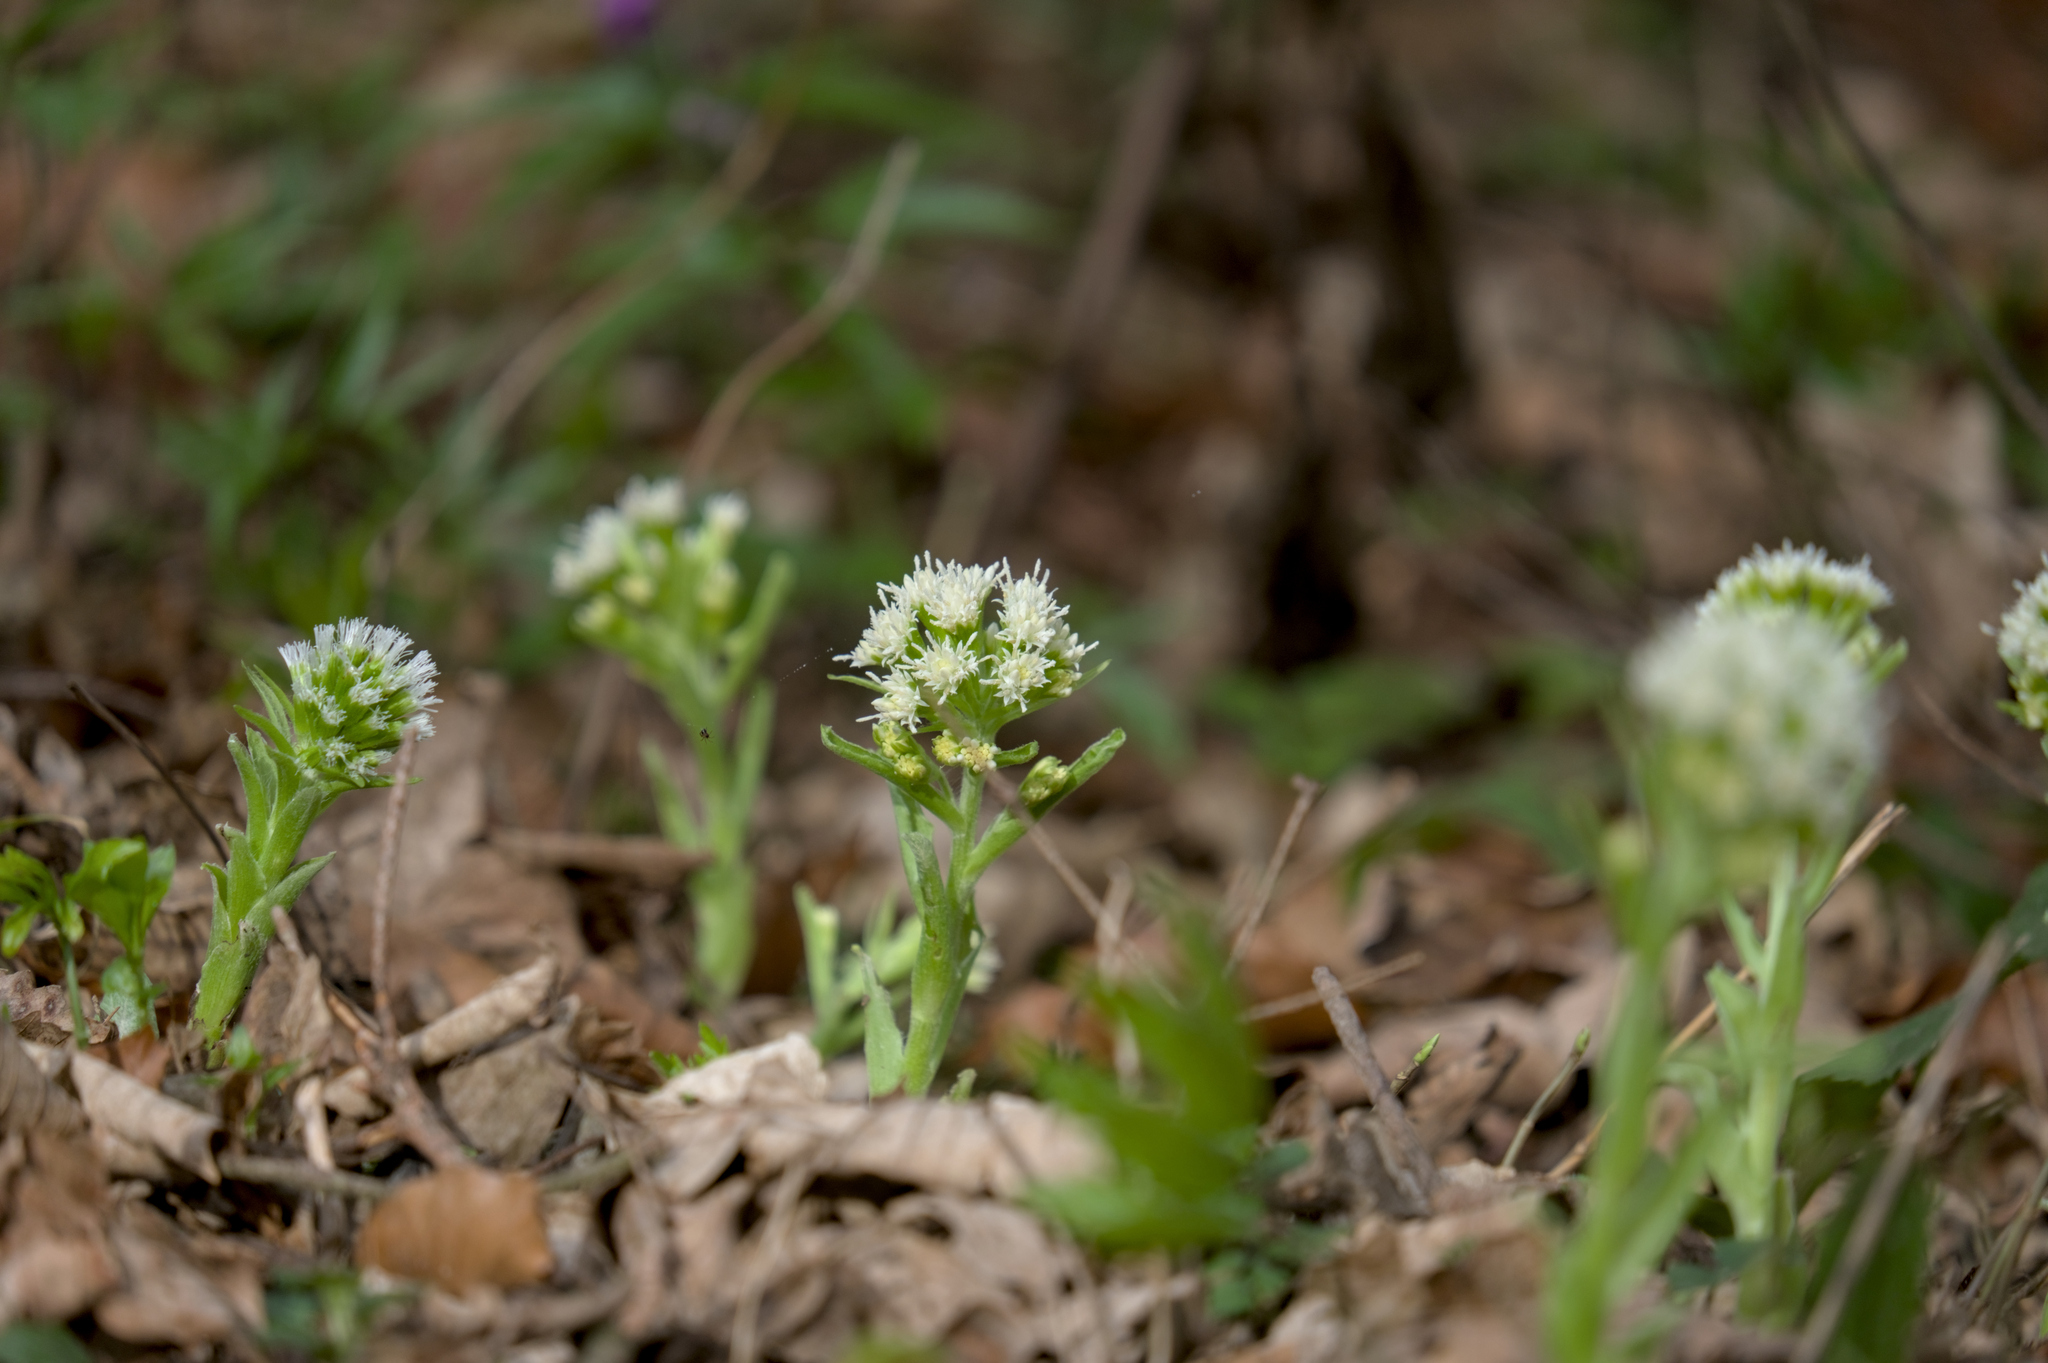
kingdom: Plantae
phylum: Tracheophyta
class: Magnoliopsida
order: Asterales
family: Asteraceae
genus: Petasites
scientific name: Petasites albus
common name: White butterbur
